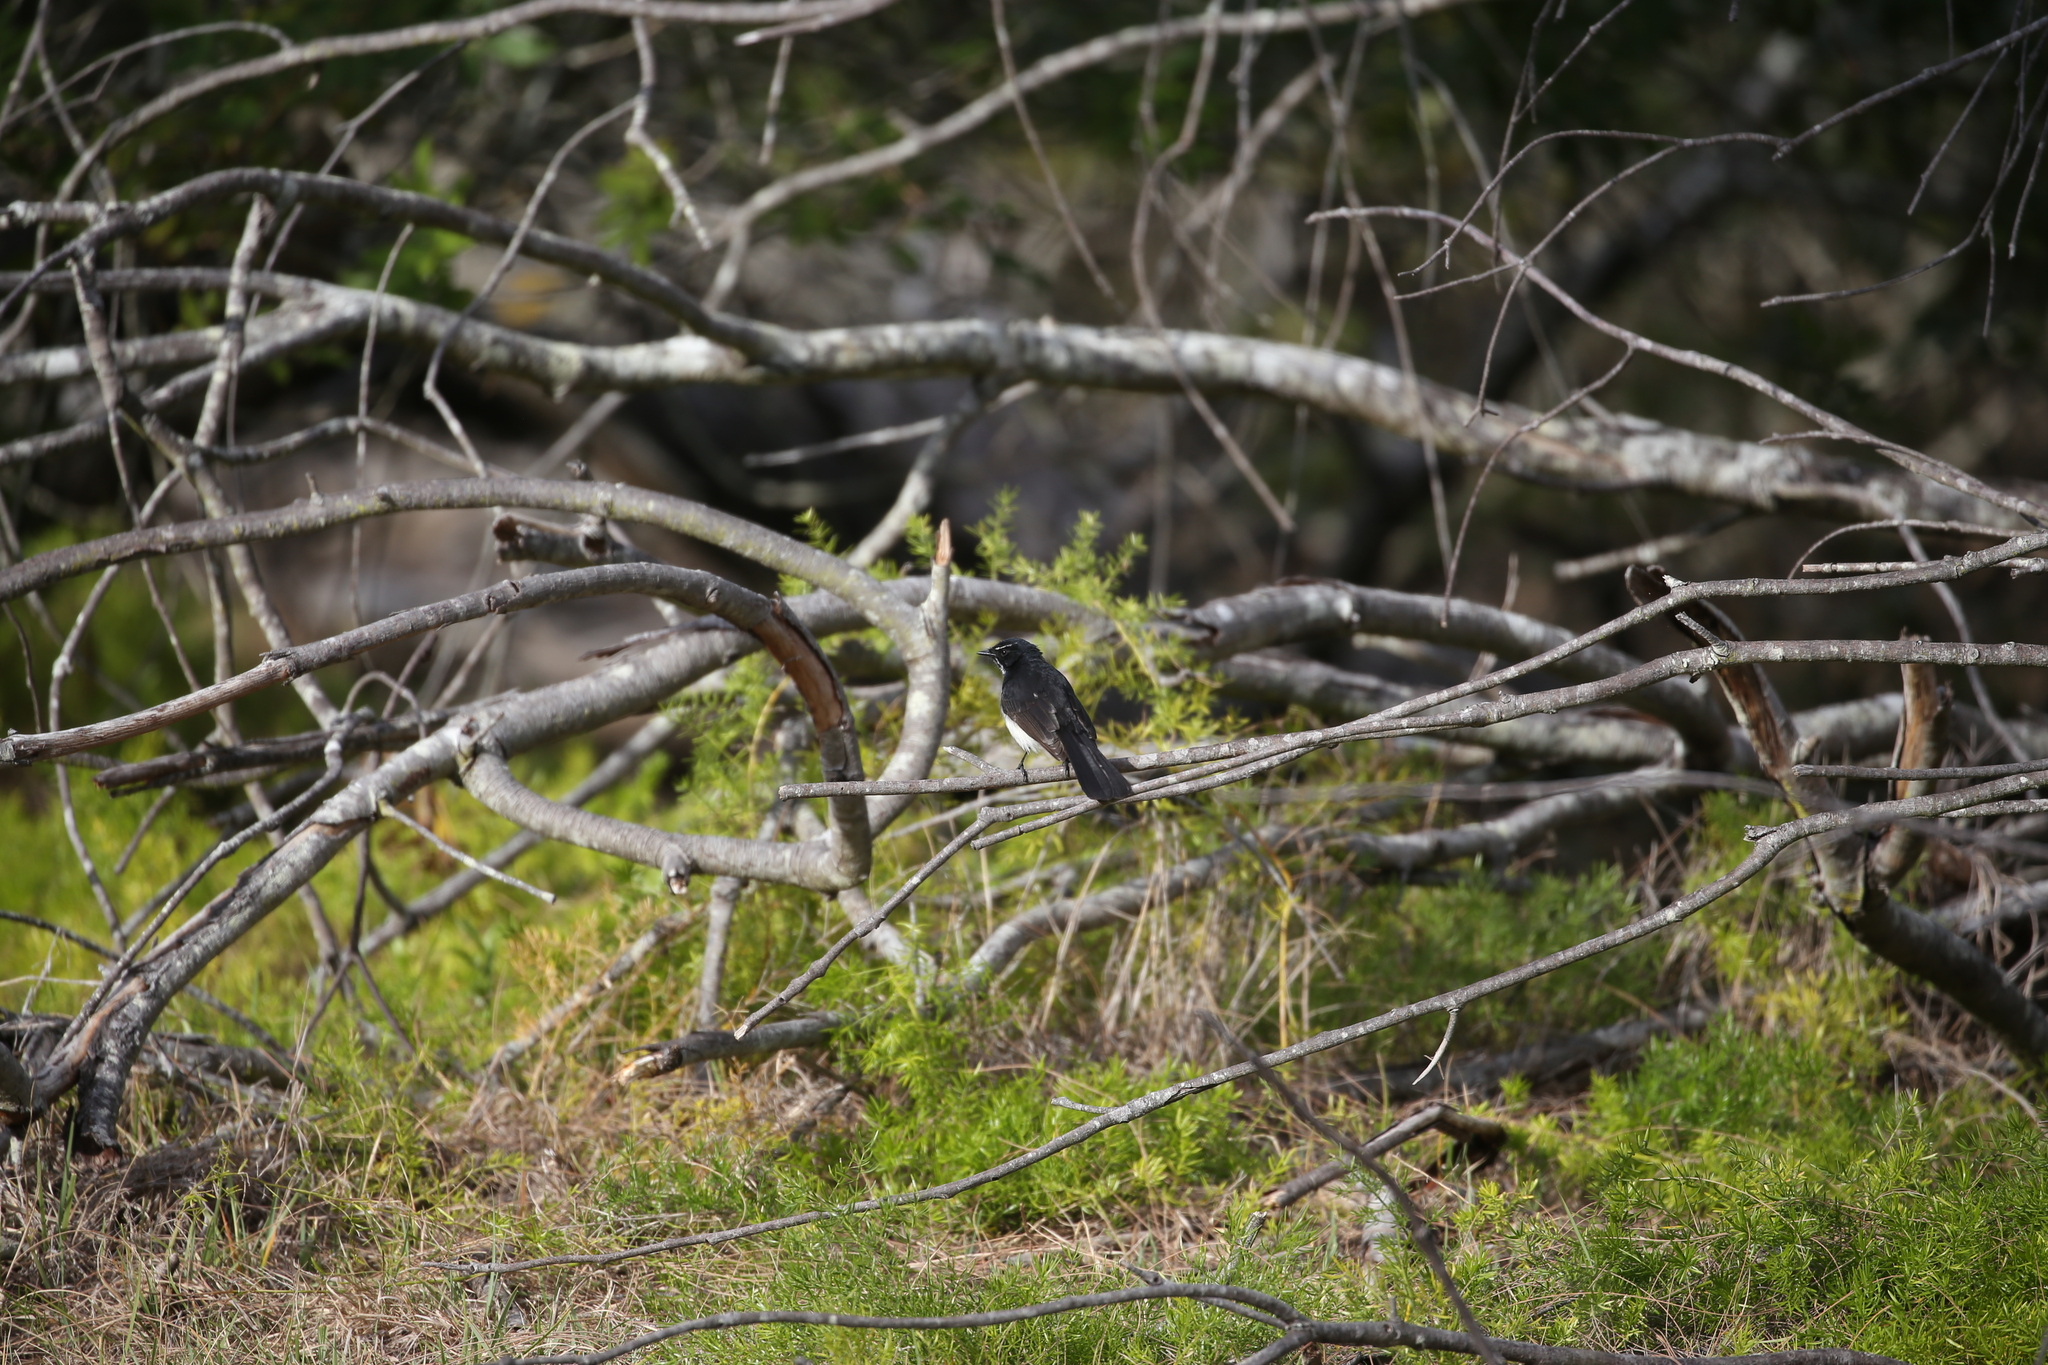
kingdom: Animalia
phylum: Chordata
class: Aves
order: Passeriformes
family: Rhipiduridae
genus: Rhipidura
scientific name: Rhipidura leucophrys
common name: Willie wagtail
